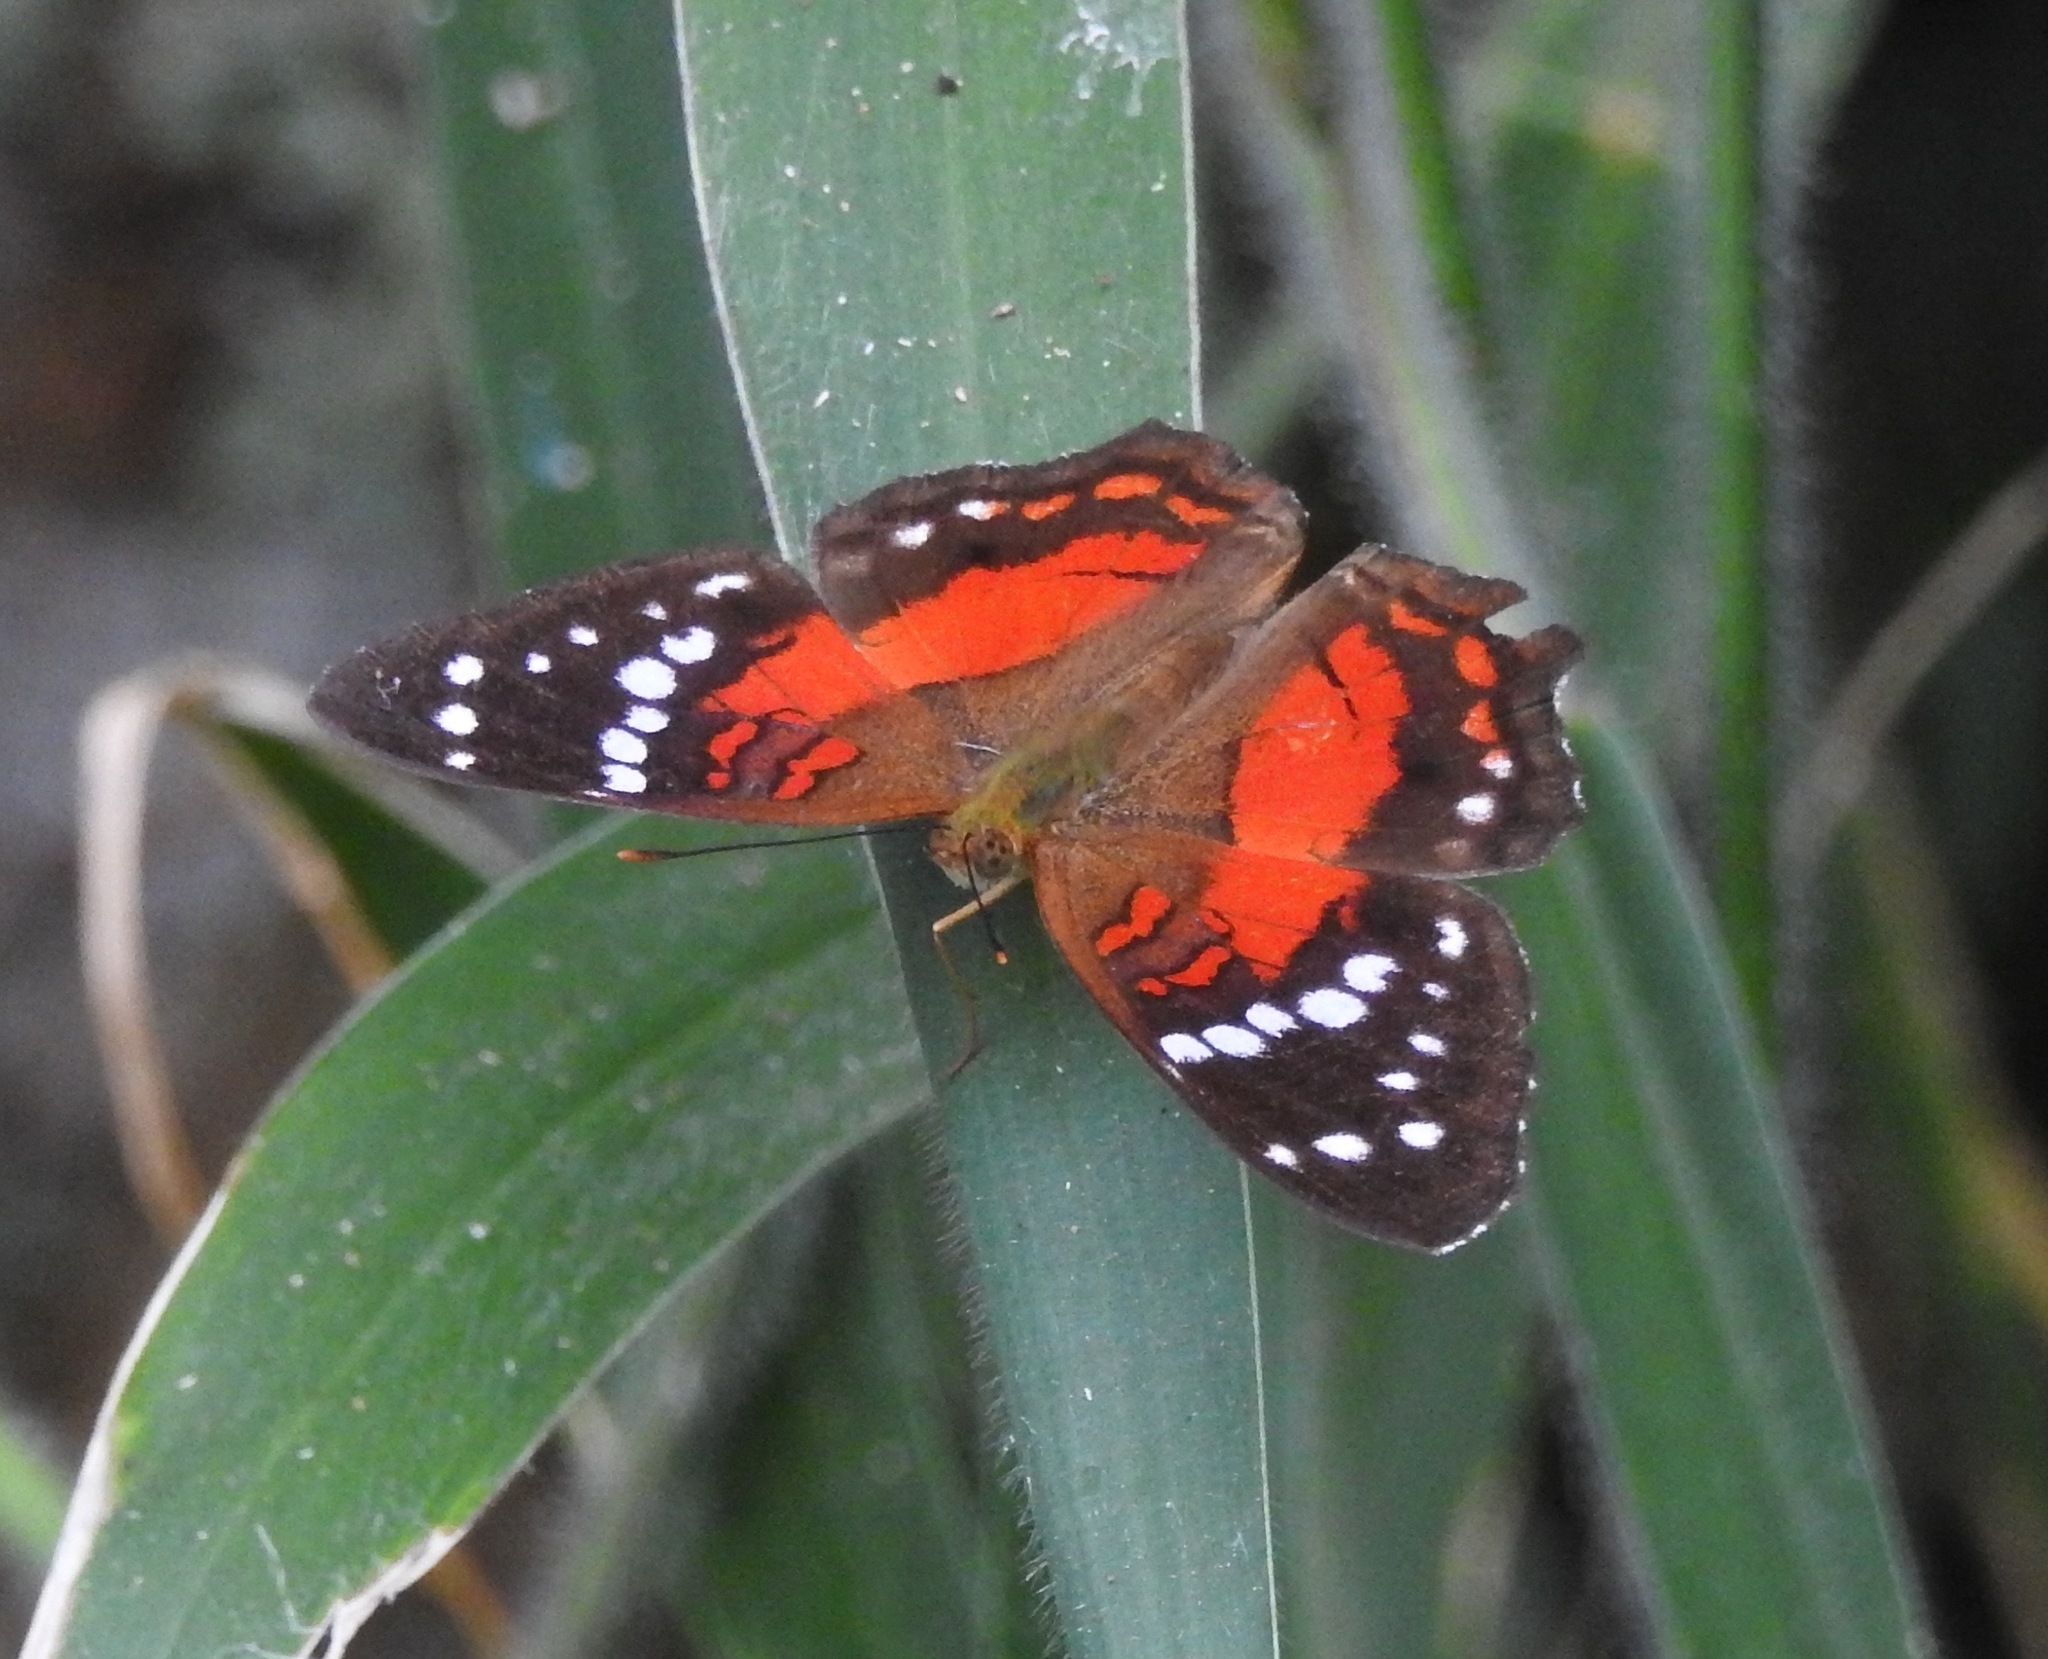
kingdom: Animalia
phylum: Arthropoda
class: Insecta
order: Lepidoptera
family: Nymphalidae
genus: Anartia
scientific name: Anartia amathea
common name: Red peacock
